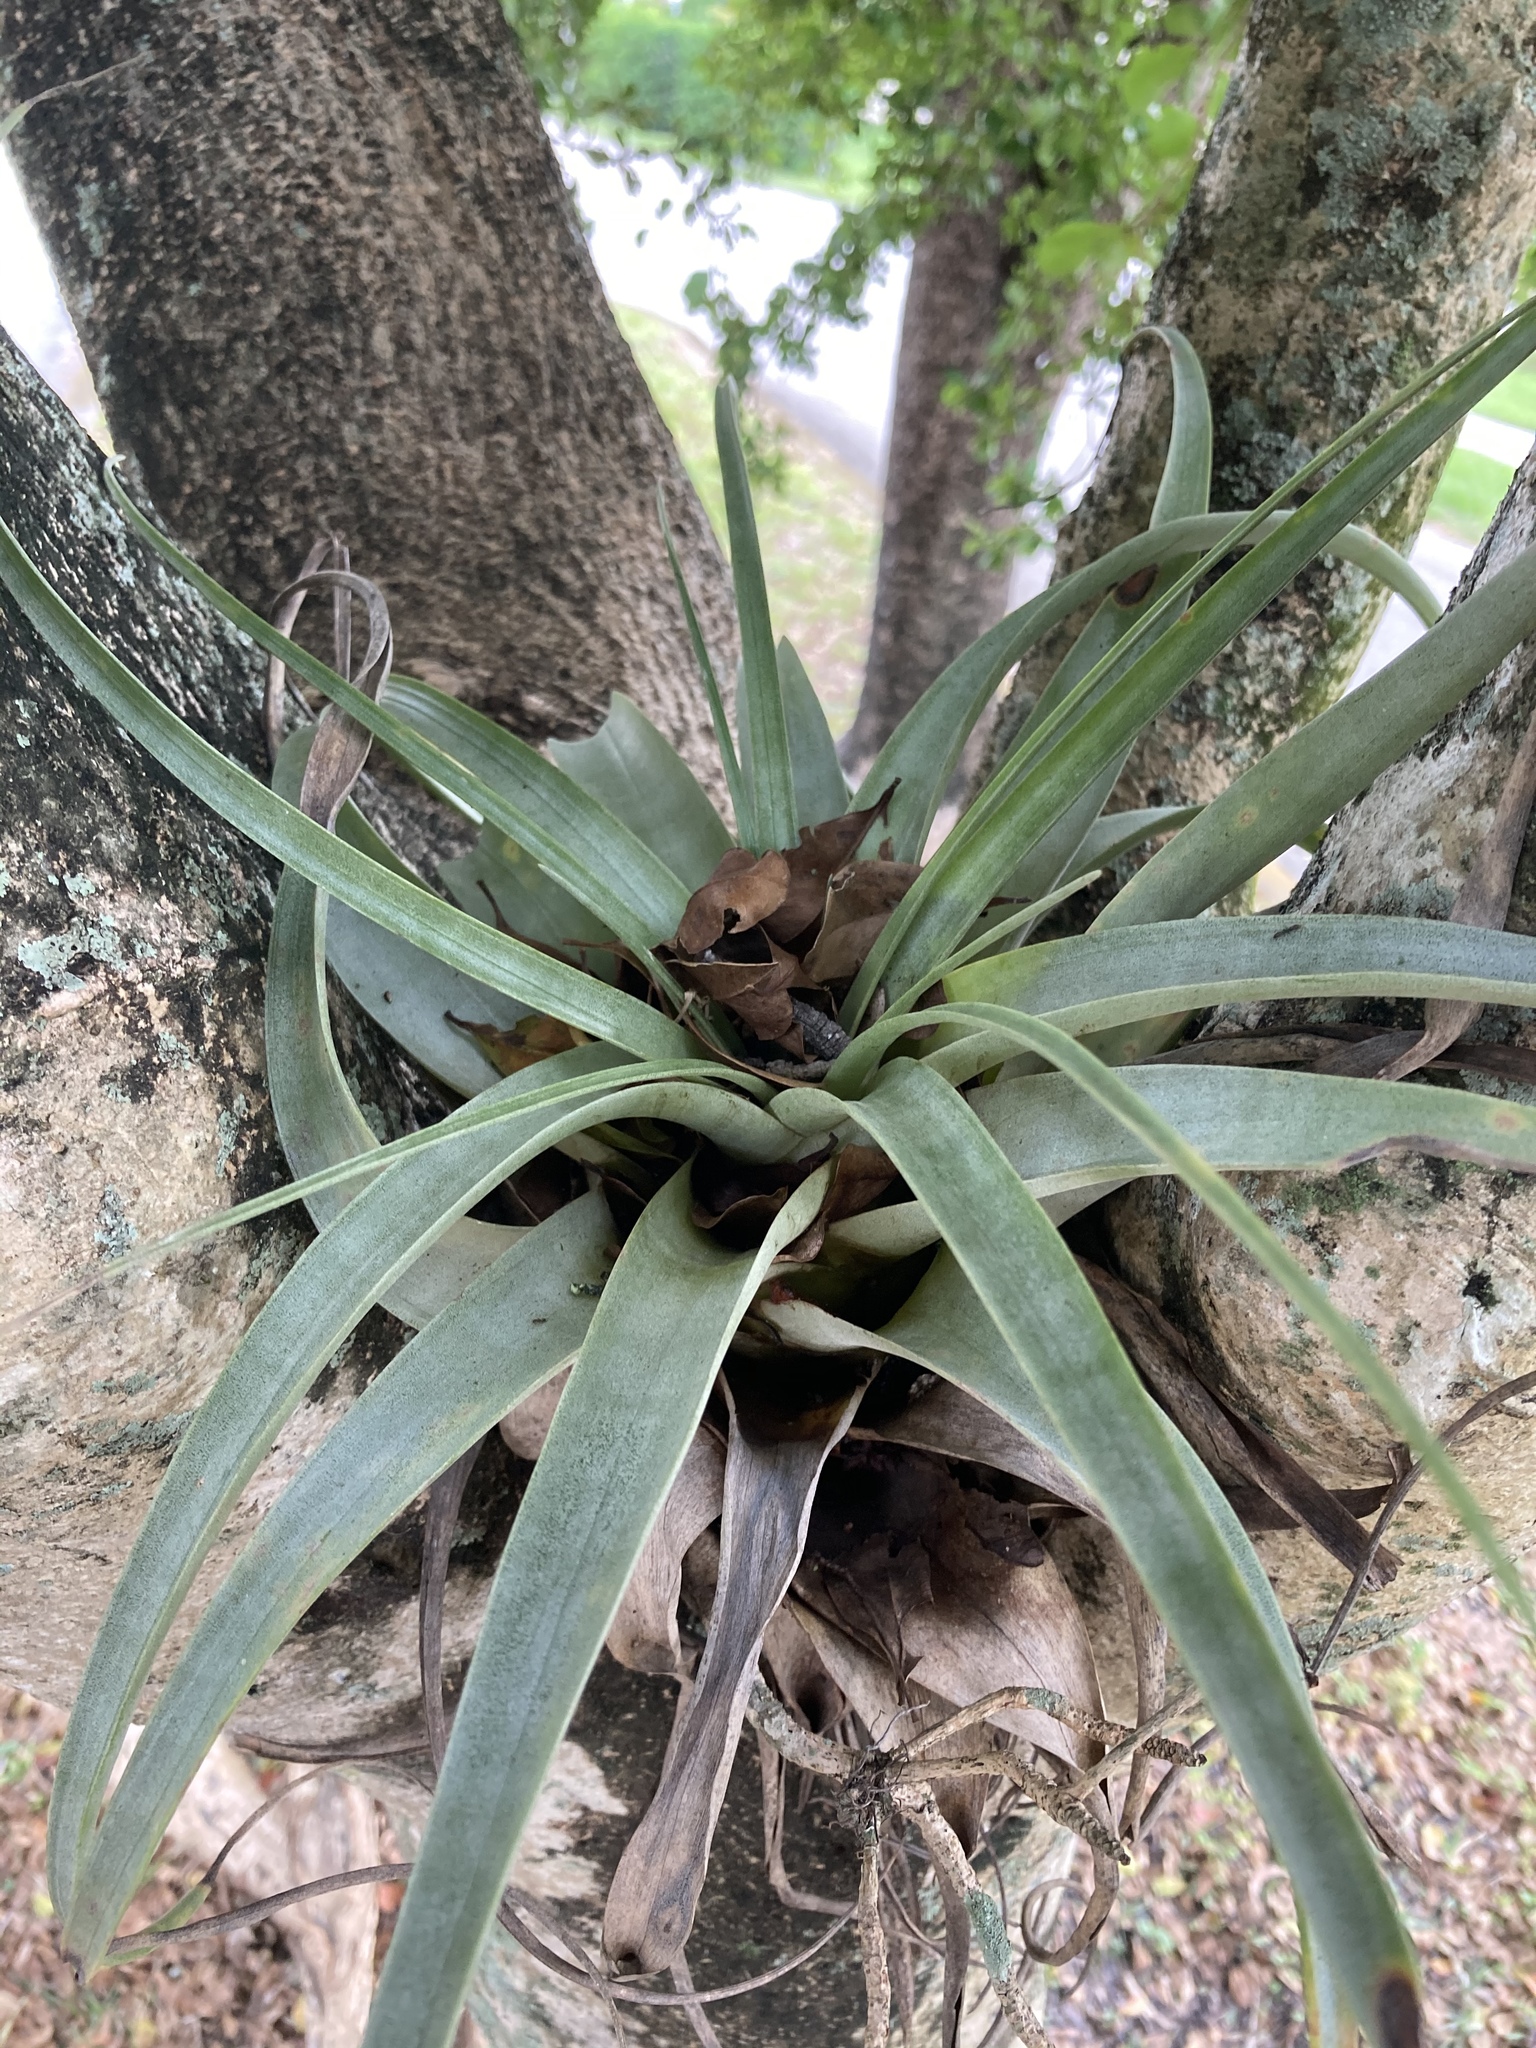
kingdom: Plantae
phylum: Tracheophyta
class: Liliopsida
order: Poales
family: Bromeliaceae
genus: Tillandsia
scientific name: Tillandsia utriculata
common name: Wild pine
